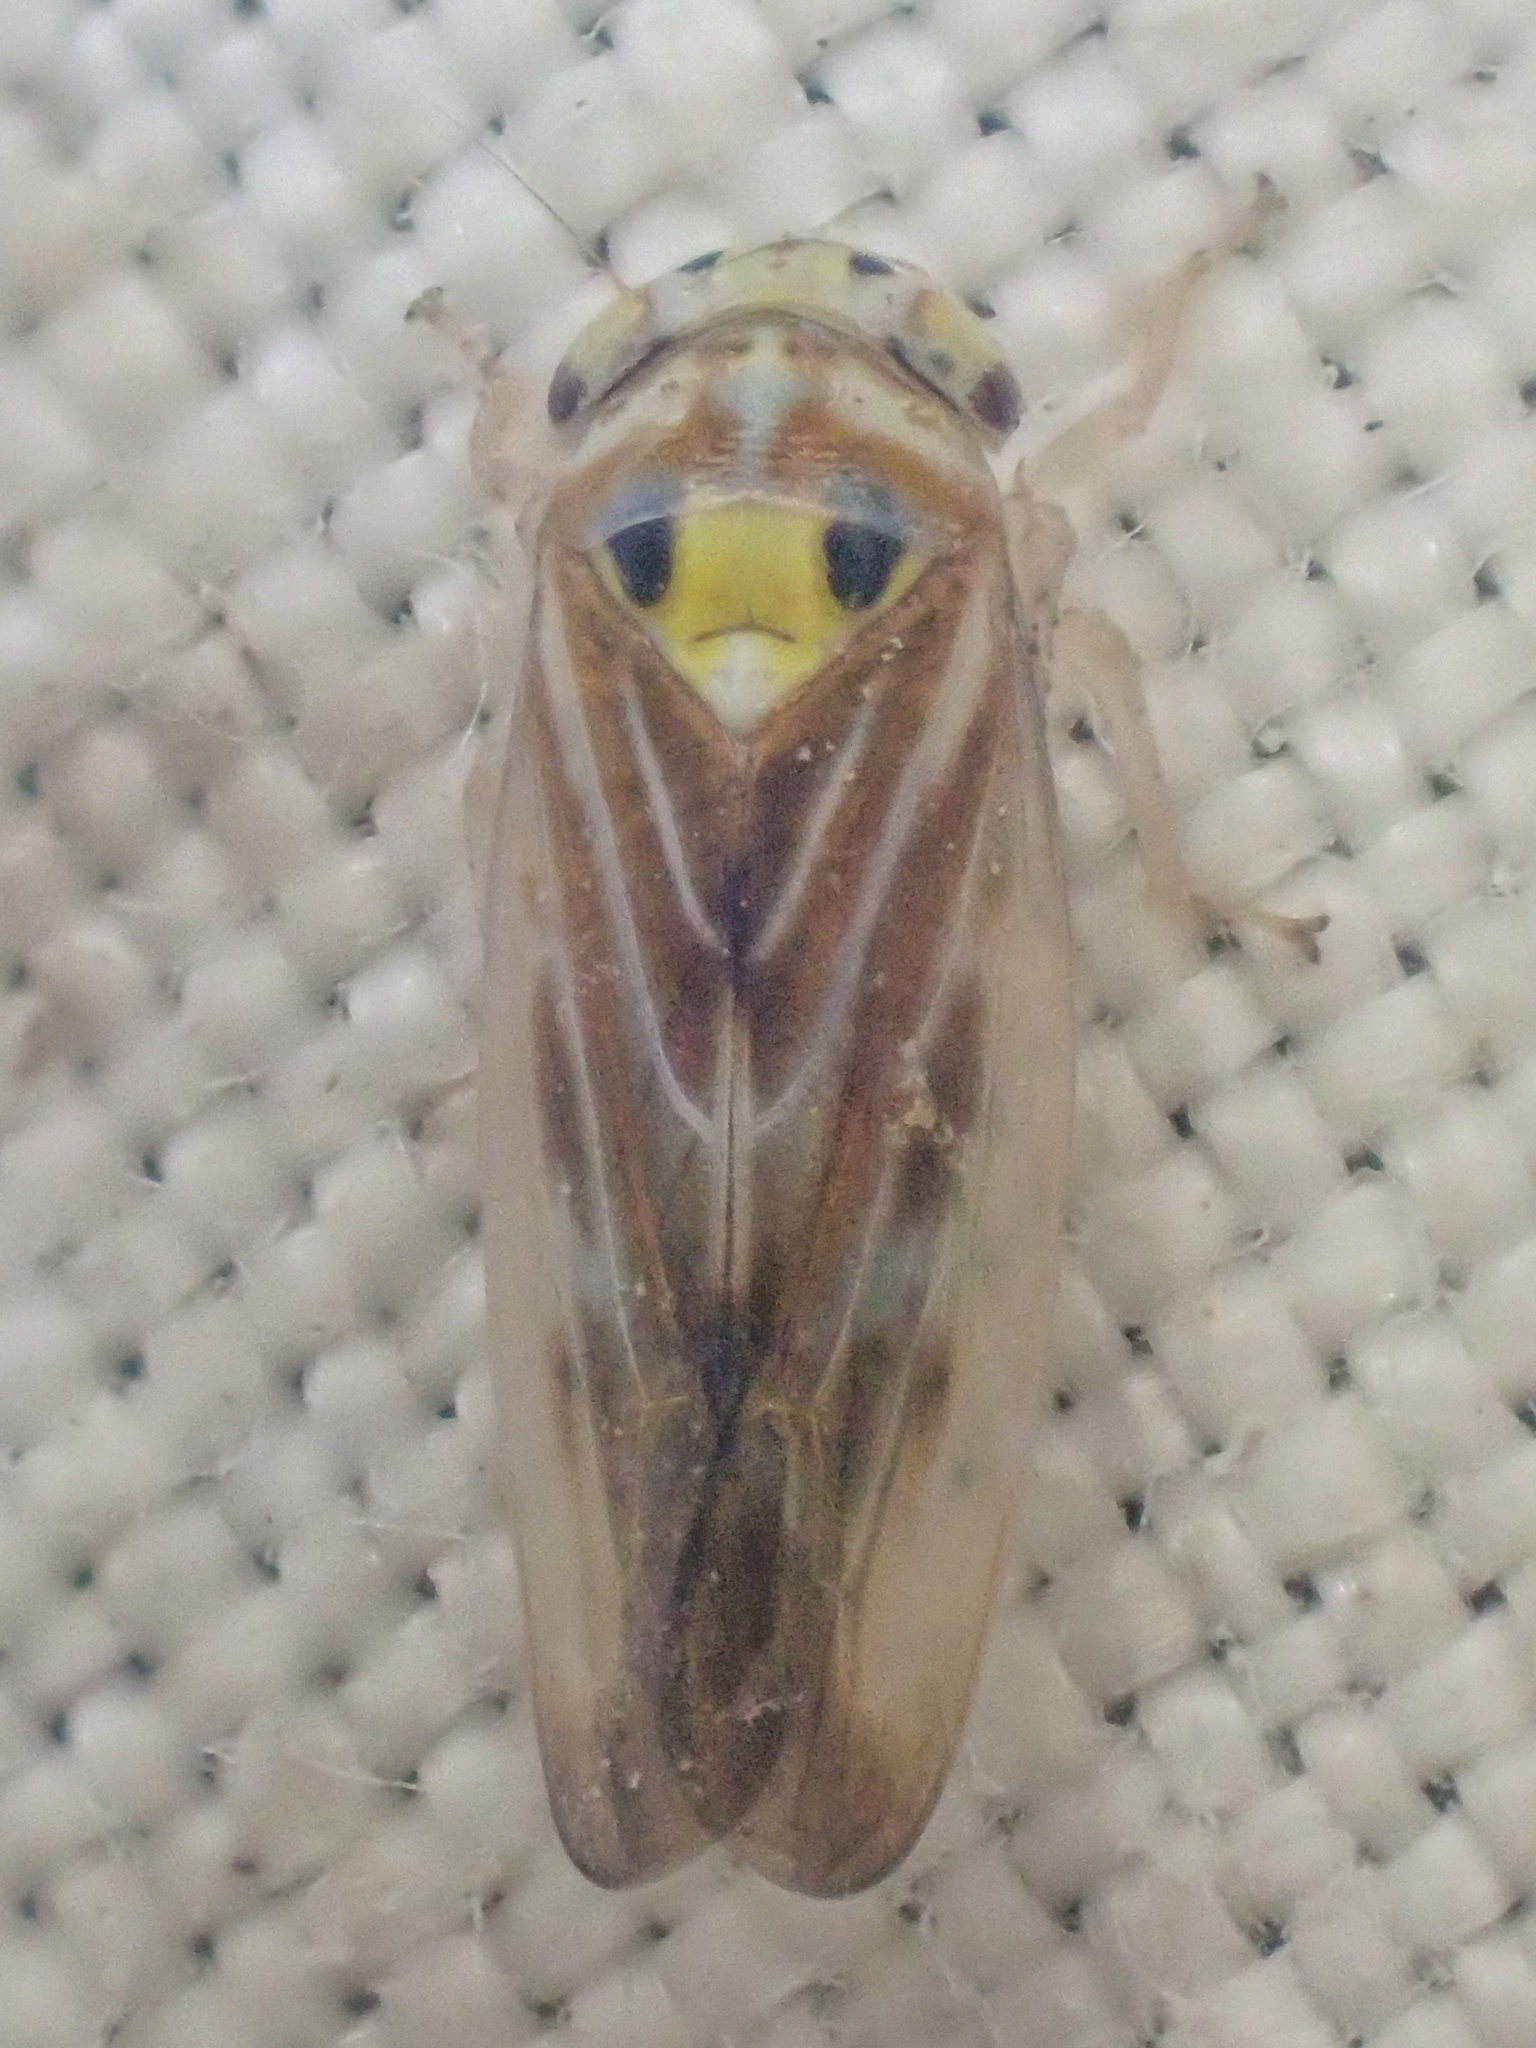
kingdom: Animalia
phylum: Arthropoda
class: Insecta
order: Hemiptera
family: Cicadellidae
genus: Caladonus
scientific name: Caladonus coquilletti
